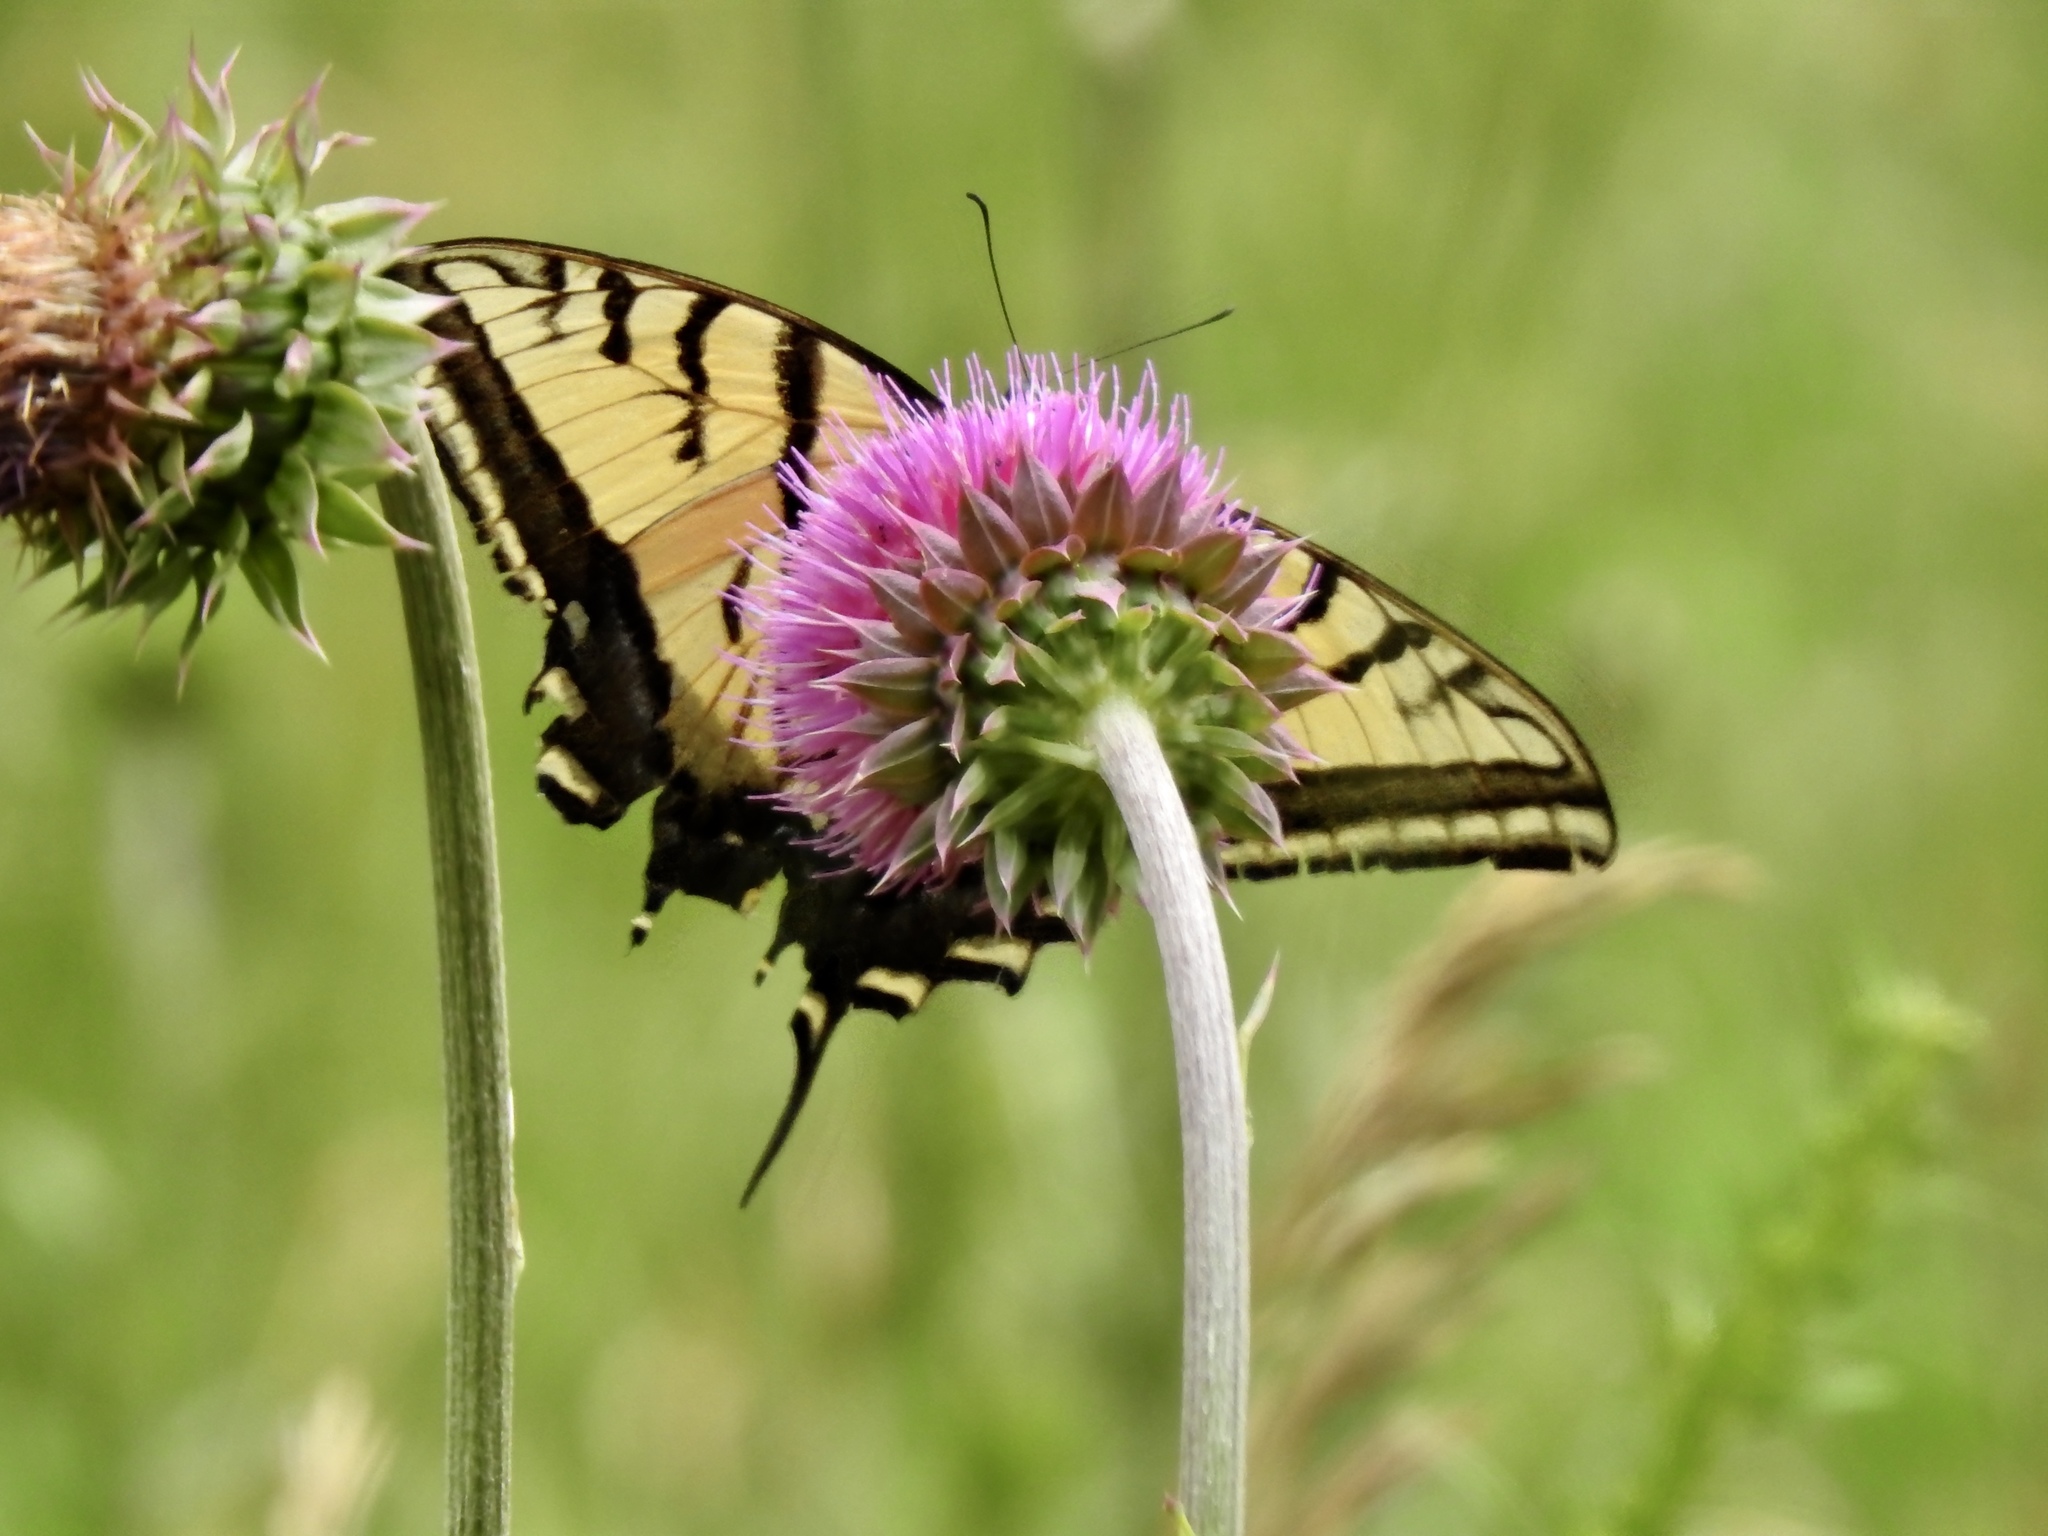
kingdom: Animalia
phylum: Arthropoda
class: Insecta
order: Lepidoptera
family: Papilionidae
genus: Papilio
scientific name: Papilio multicaudata
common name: Two-tailed tiger swallowtail
